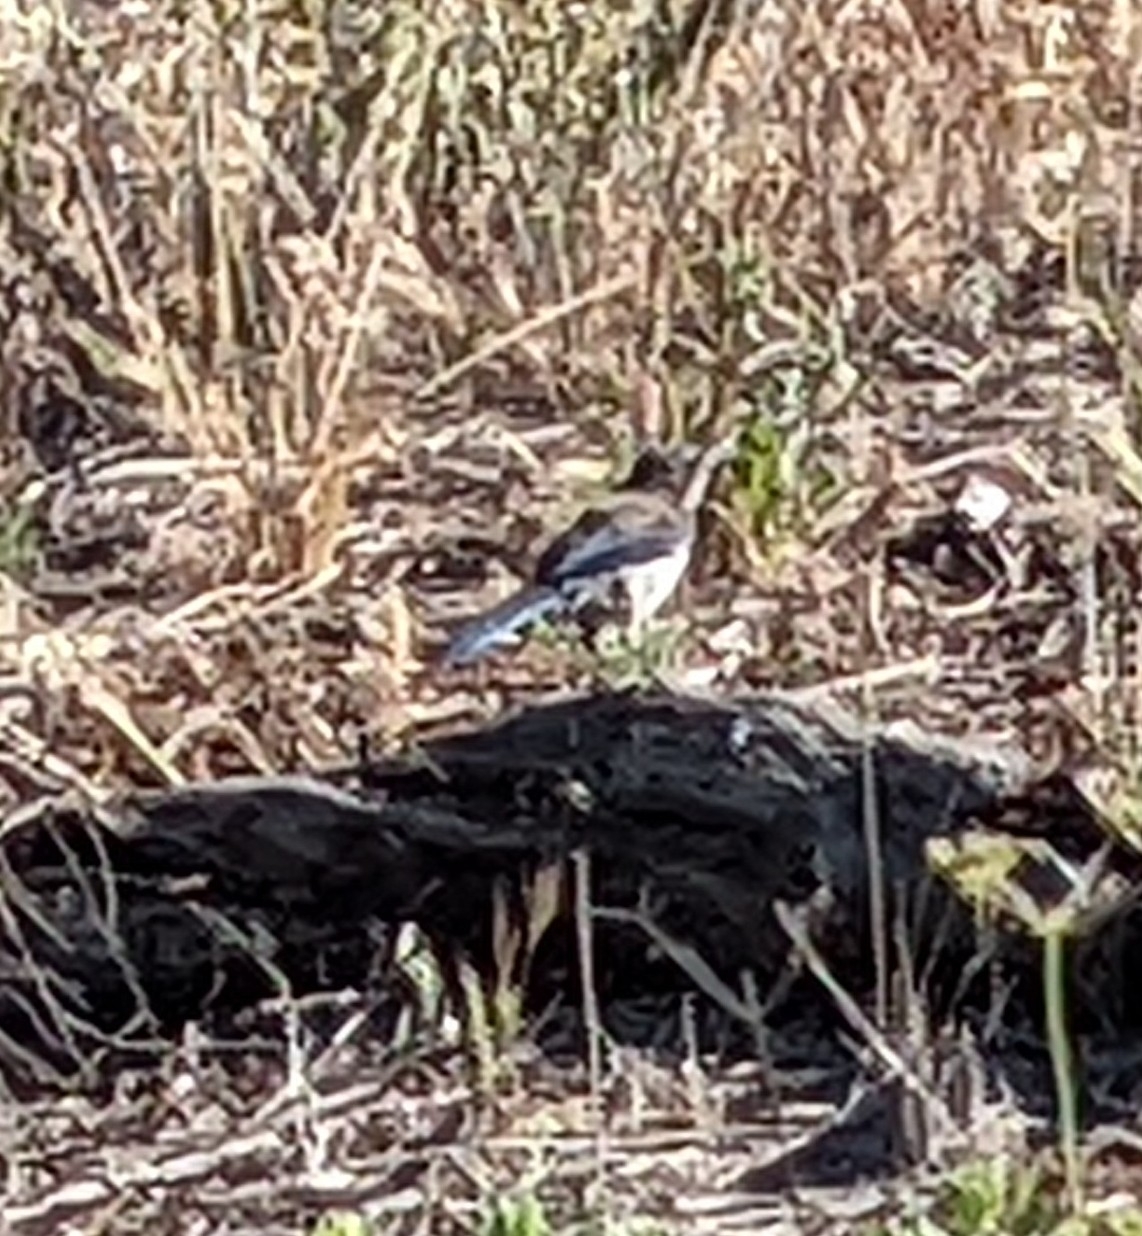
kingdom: Animalia
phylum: Chordata
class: Aves
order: Passeriformes
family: Corvidae
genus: Aphelocoma
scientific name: Aphelocoma californica
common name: California scrub-jay
